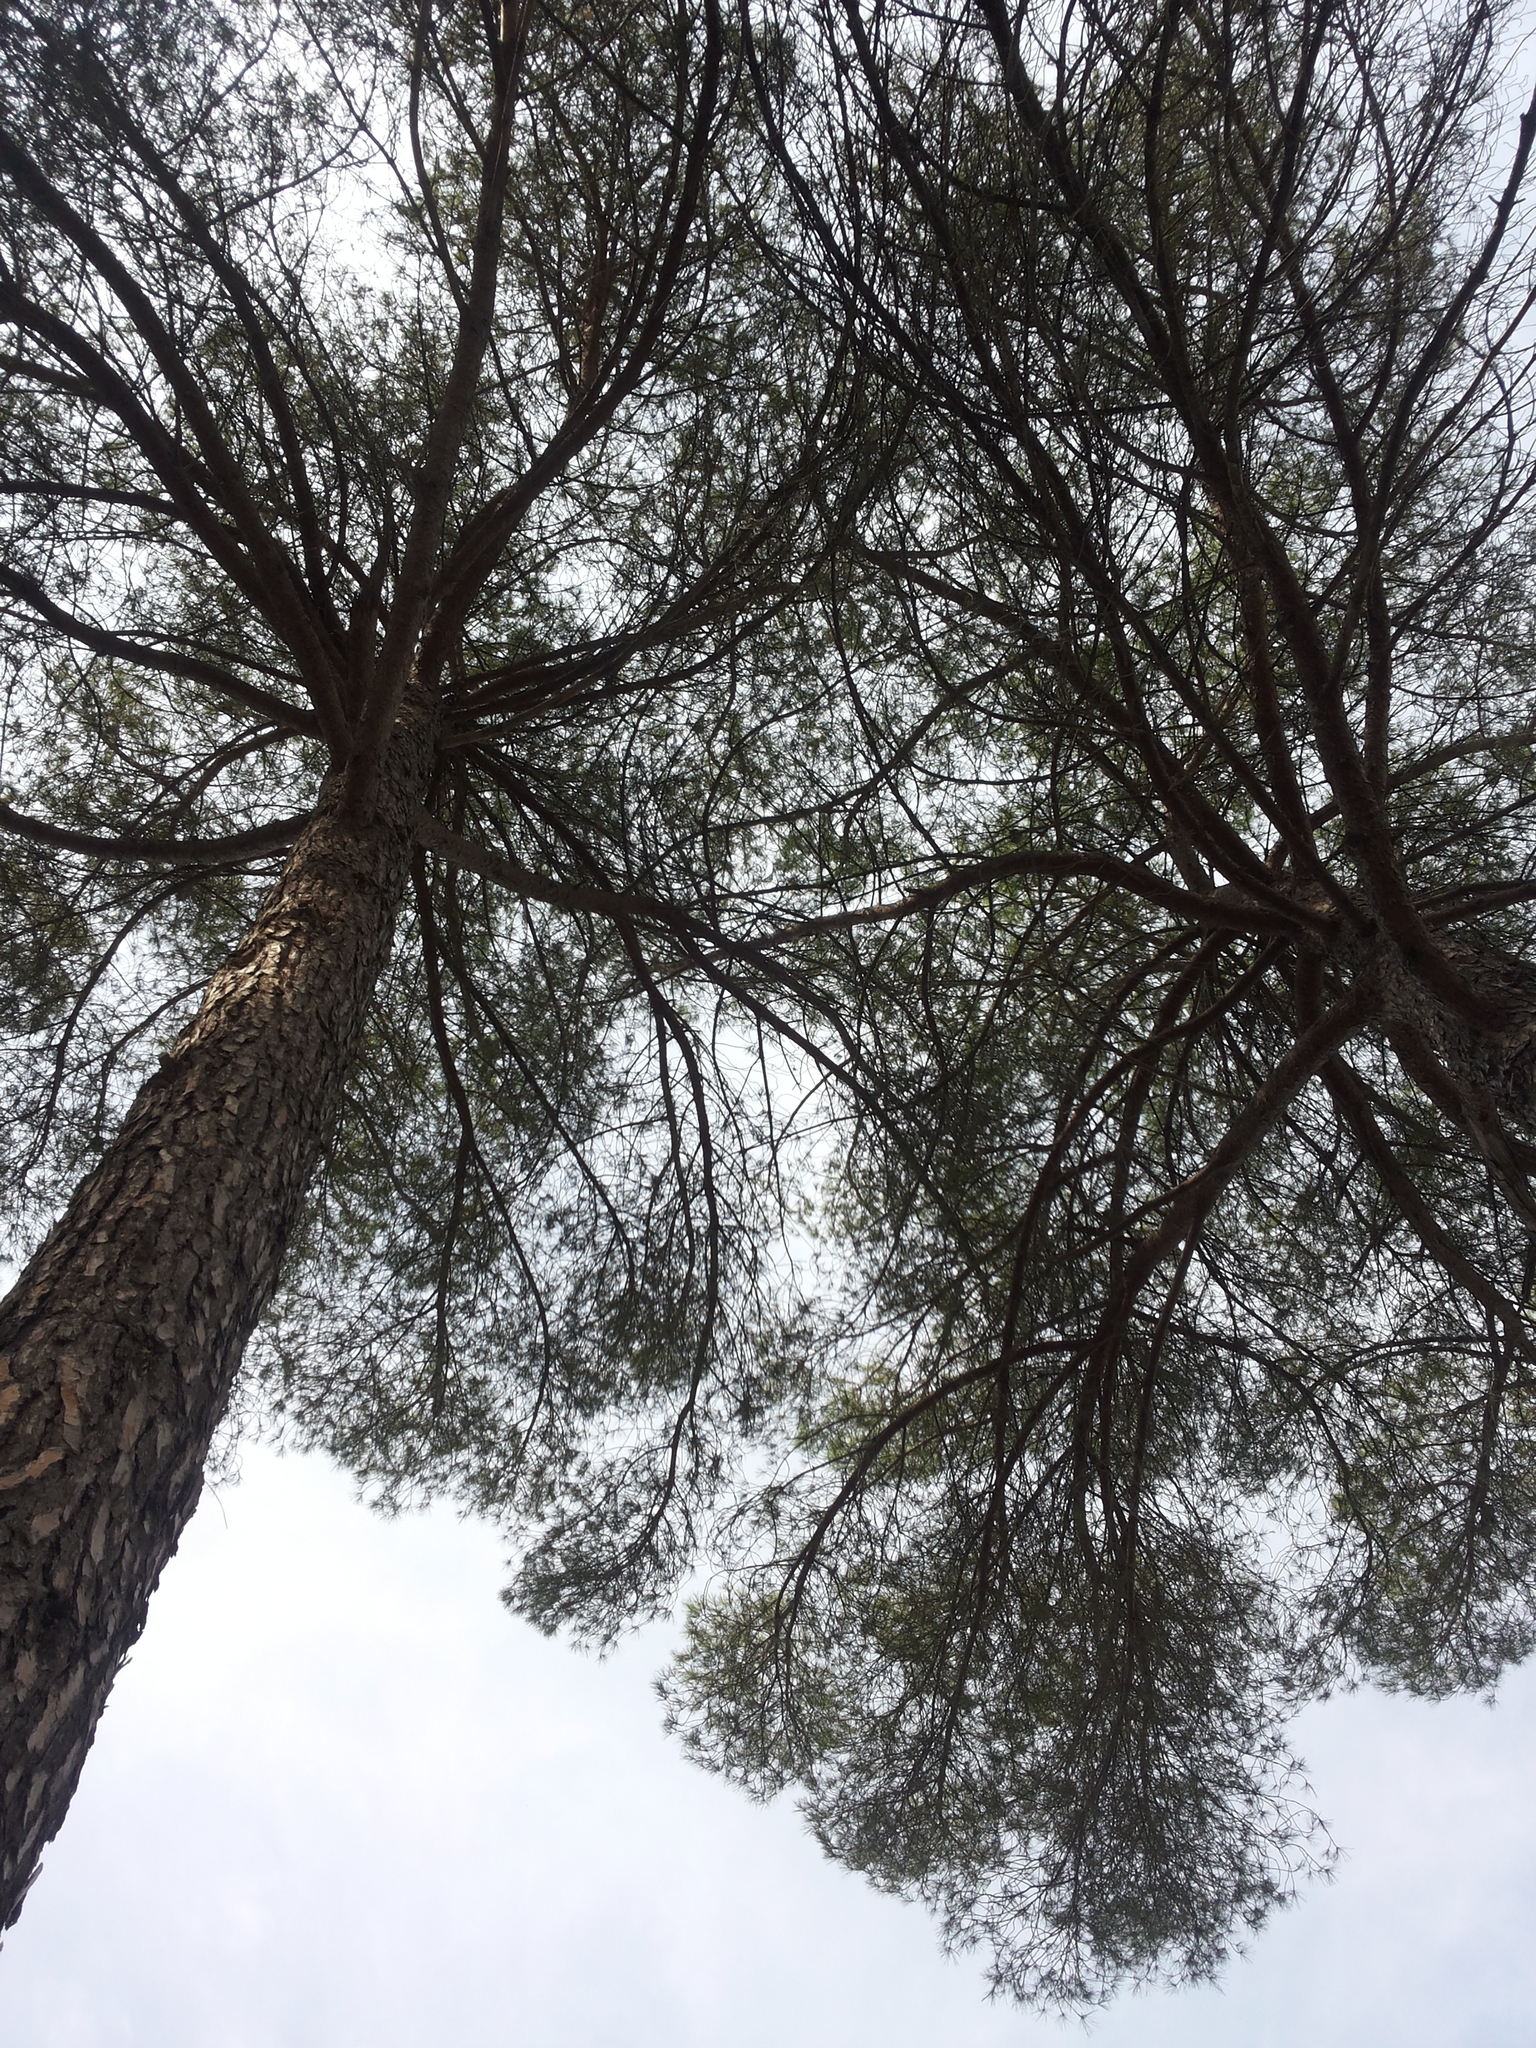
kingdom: Plantae
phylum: Tracheophyta
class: Pinopsida
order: Pinales
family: Pinaceae
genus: Pinus
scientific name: Pinus pinea
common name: Italian stone pine
